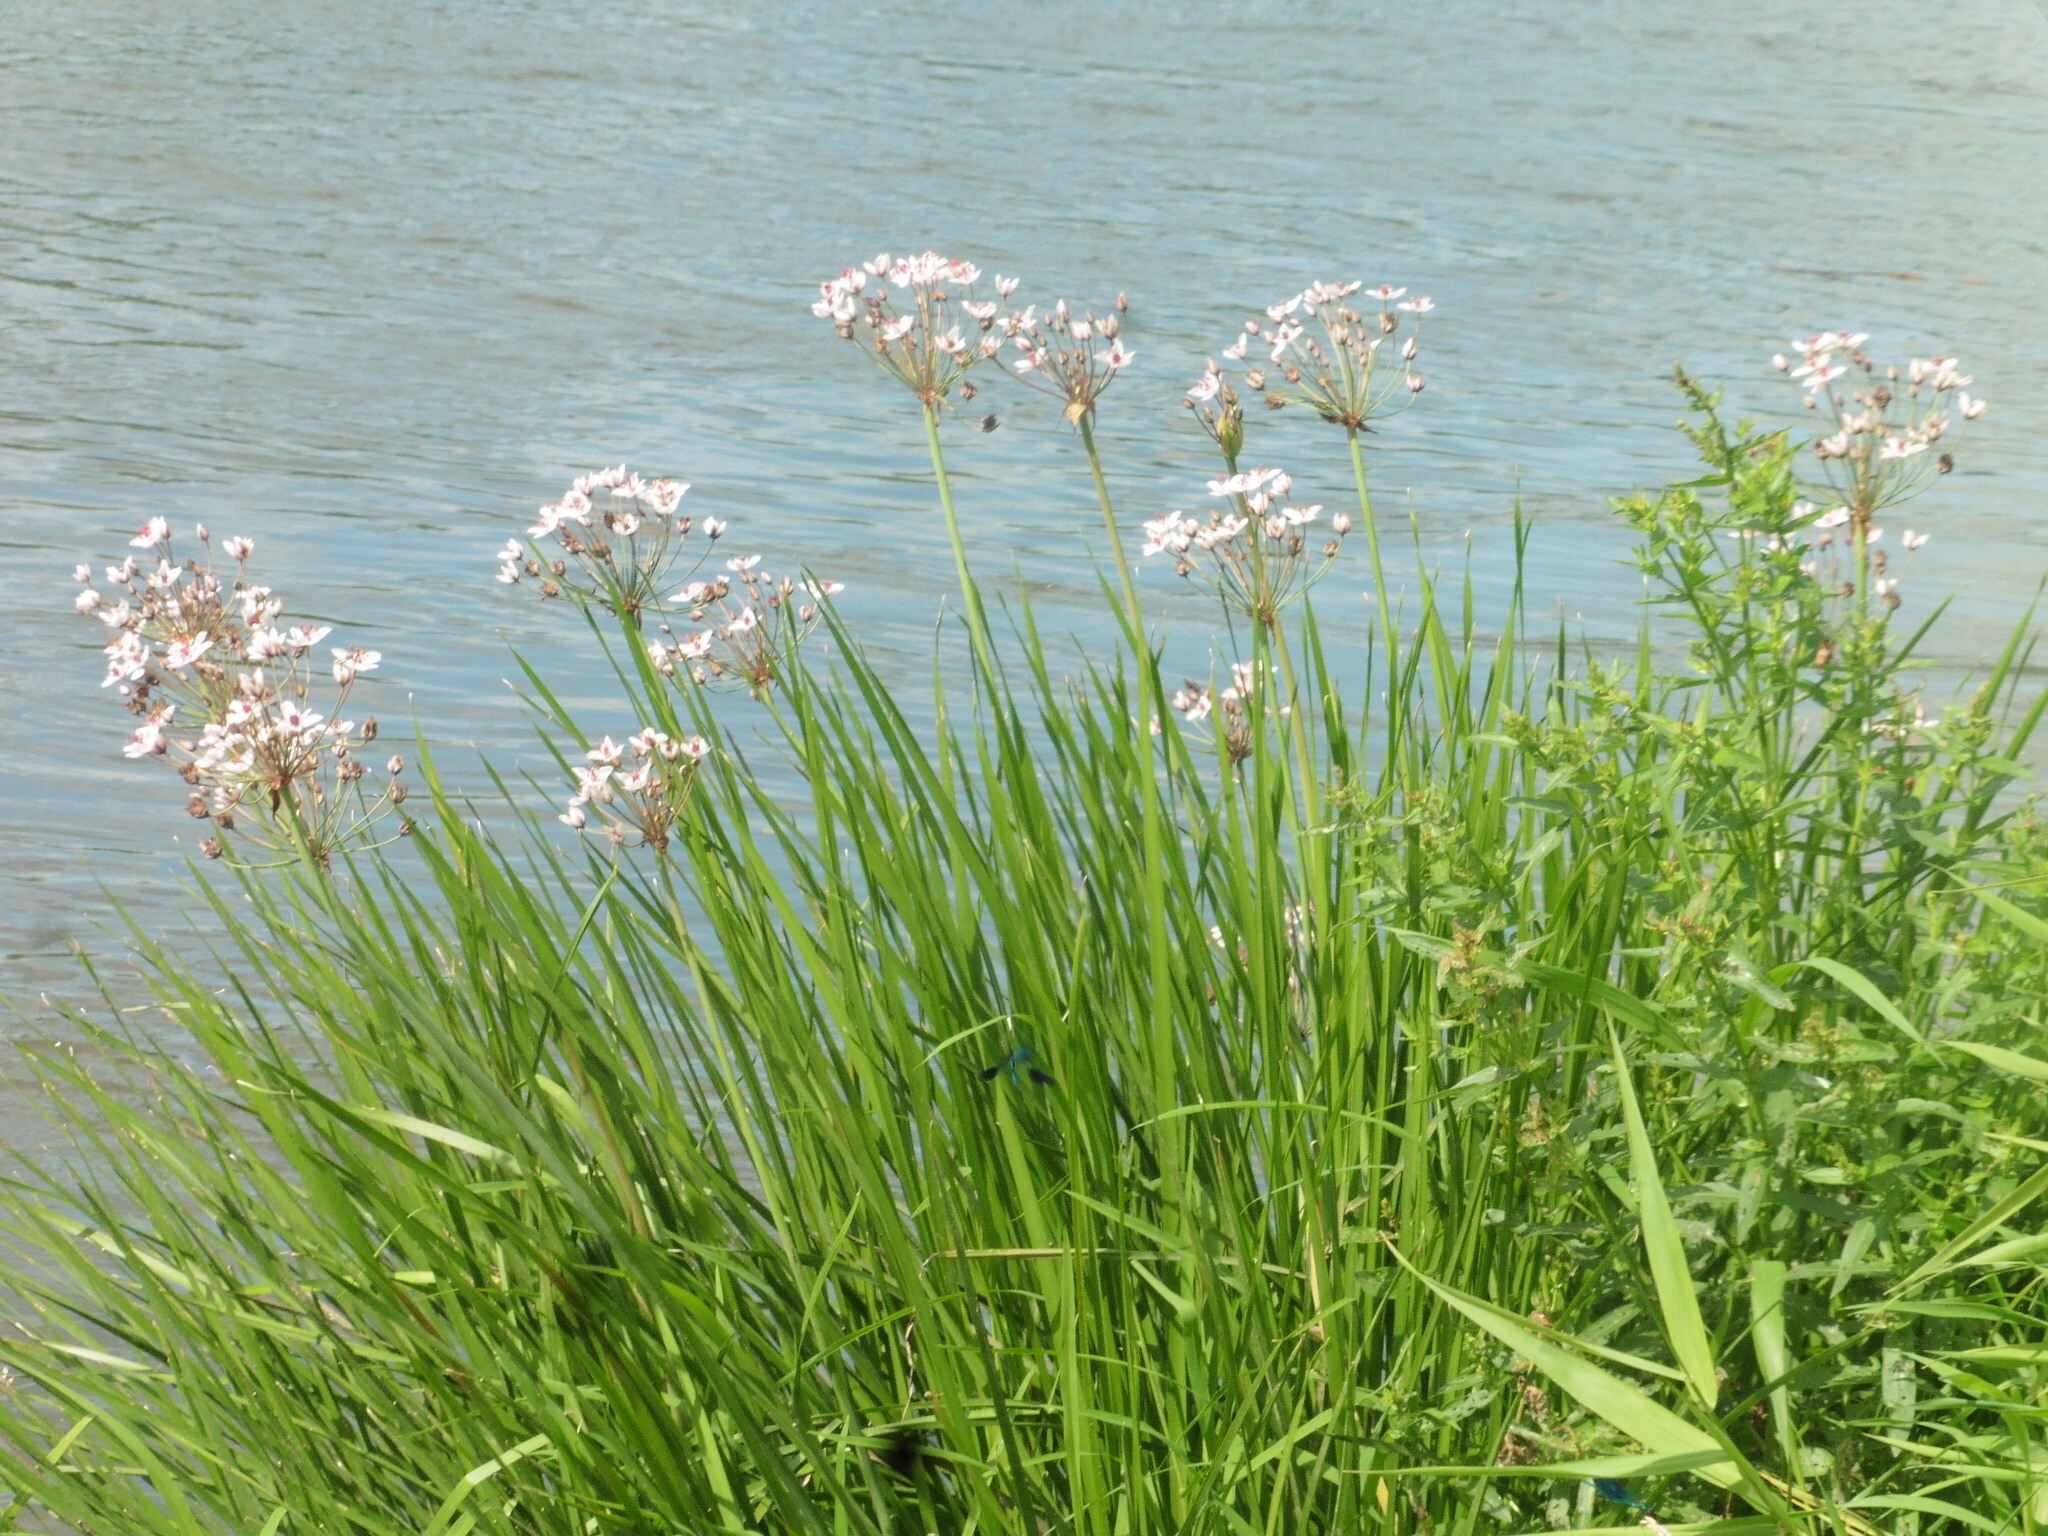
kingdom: Plantae
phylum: Tracheophyta
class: Liliopsida
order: Alismatales
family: Butomaceae
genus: Butomus
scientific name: Butomus umbellatus
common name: Flowering-rush
